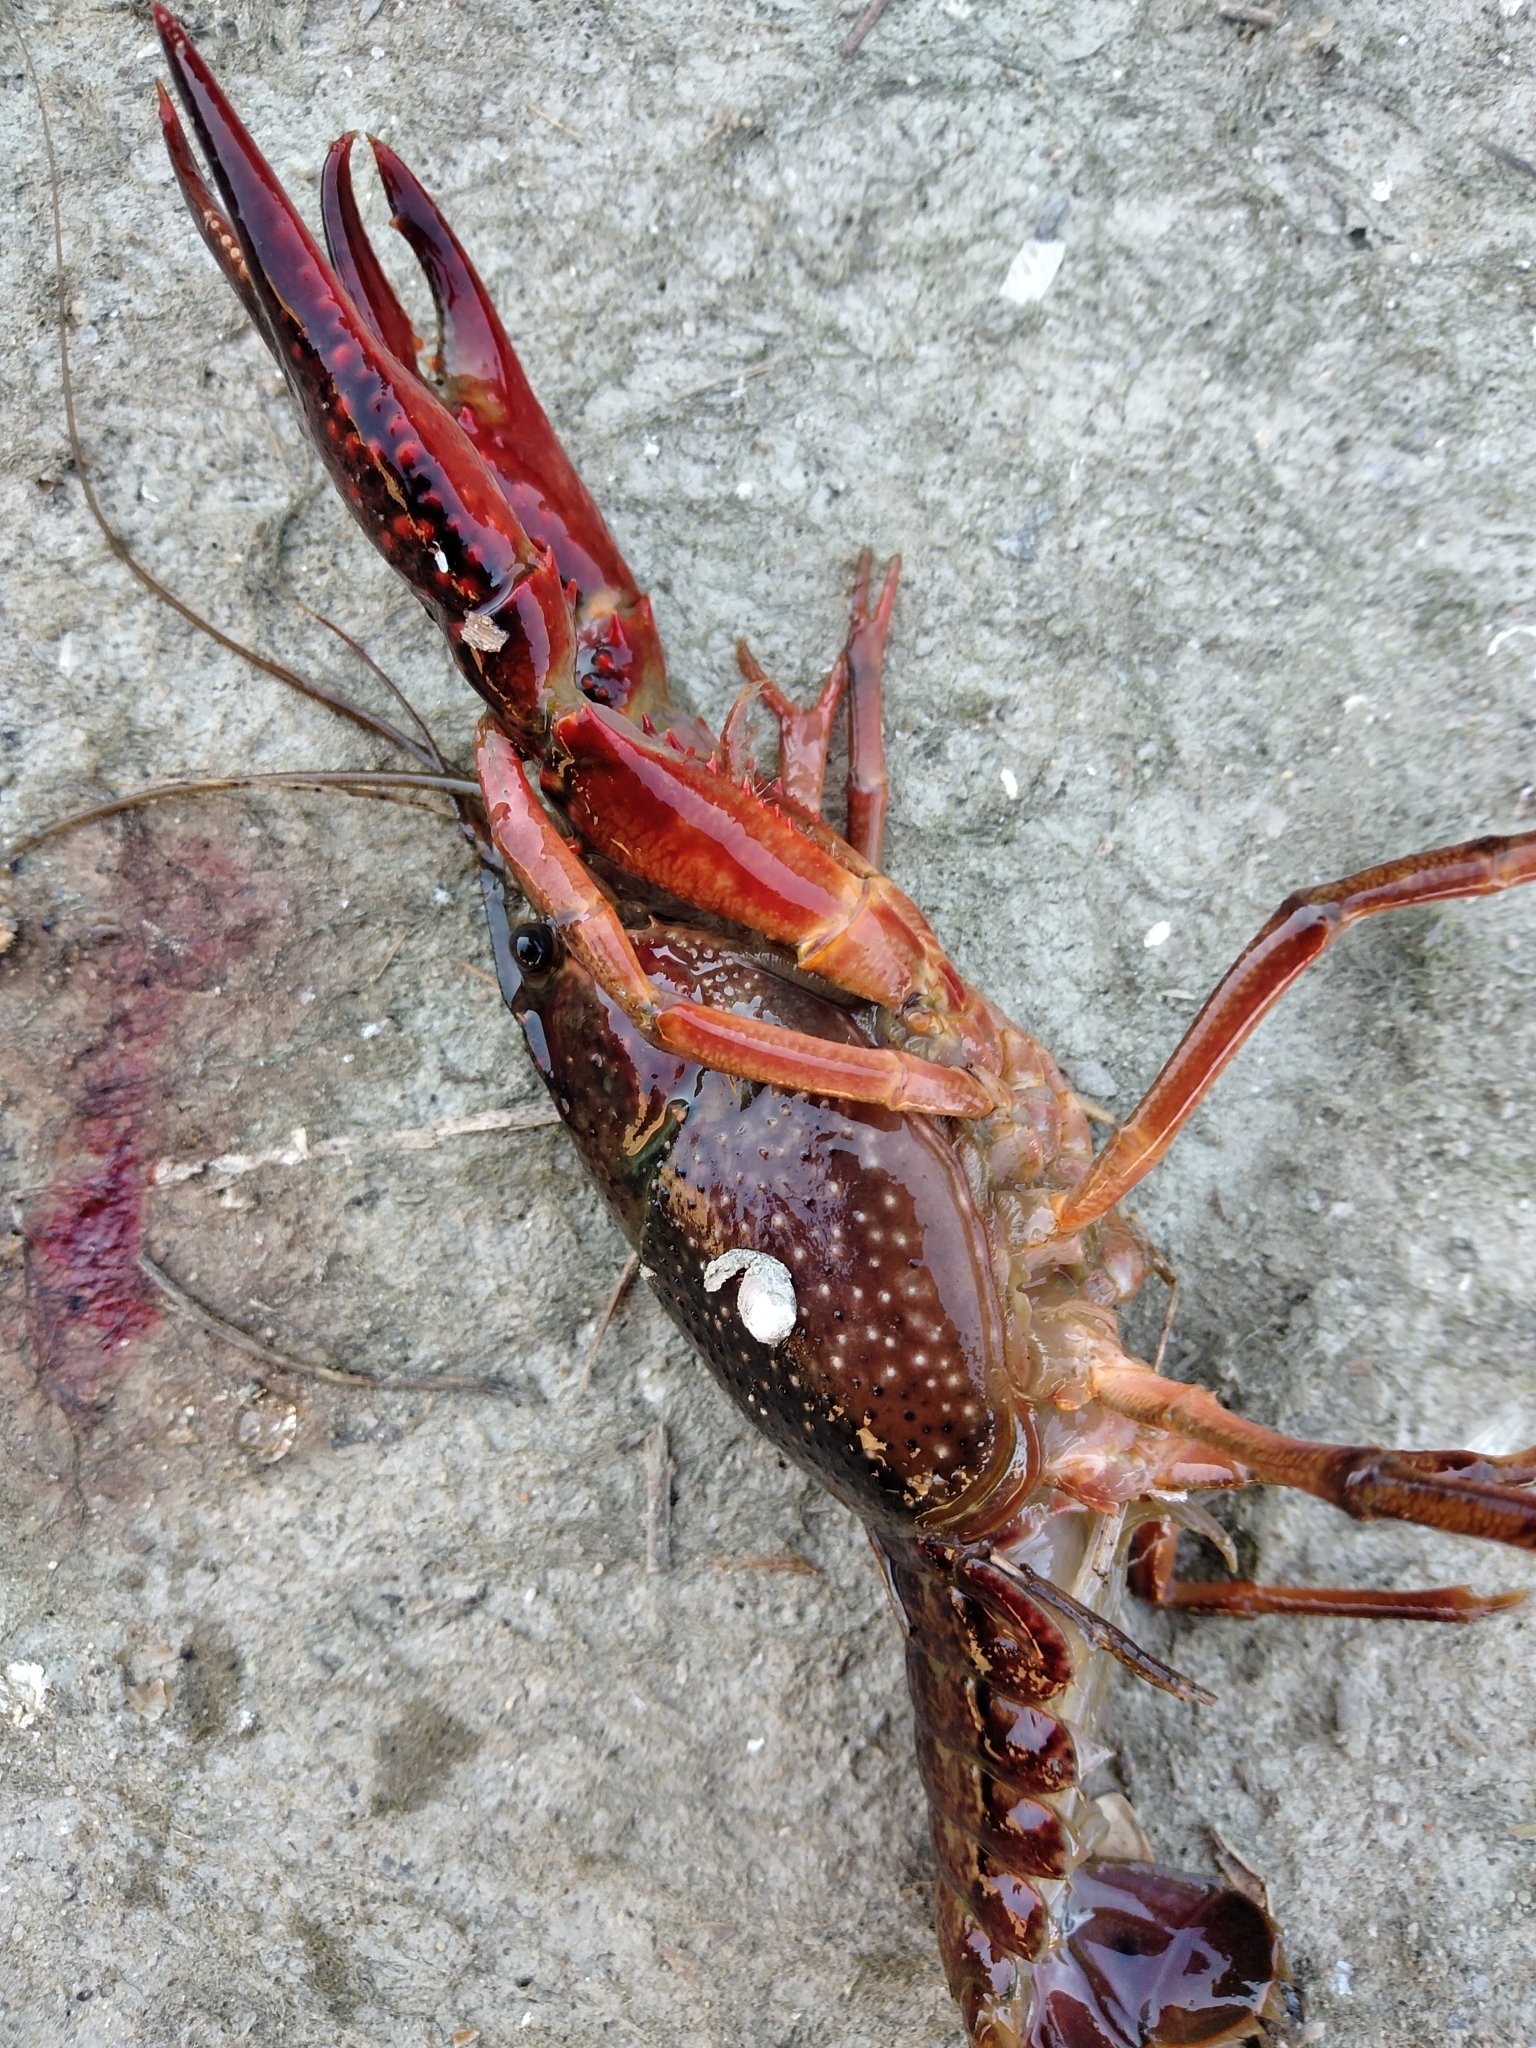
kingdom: Animalia
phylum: Arthropoda
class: Malacostraca
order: Decapoda
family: Cambaridae
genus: Procambarus
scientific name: Procambarus clarkii
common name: Red swamp crayfish
